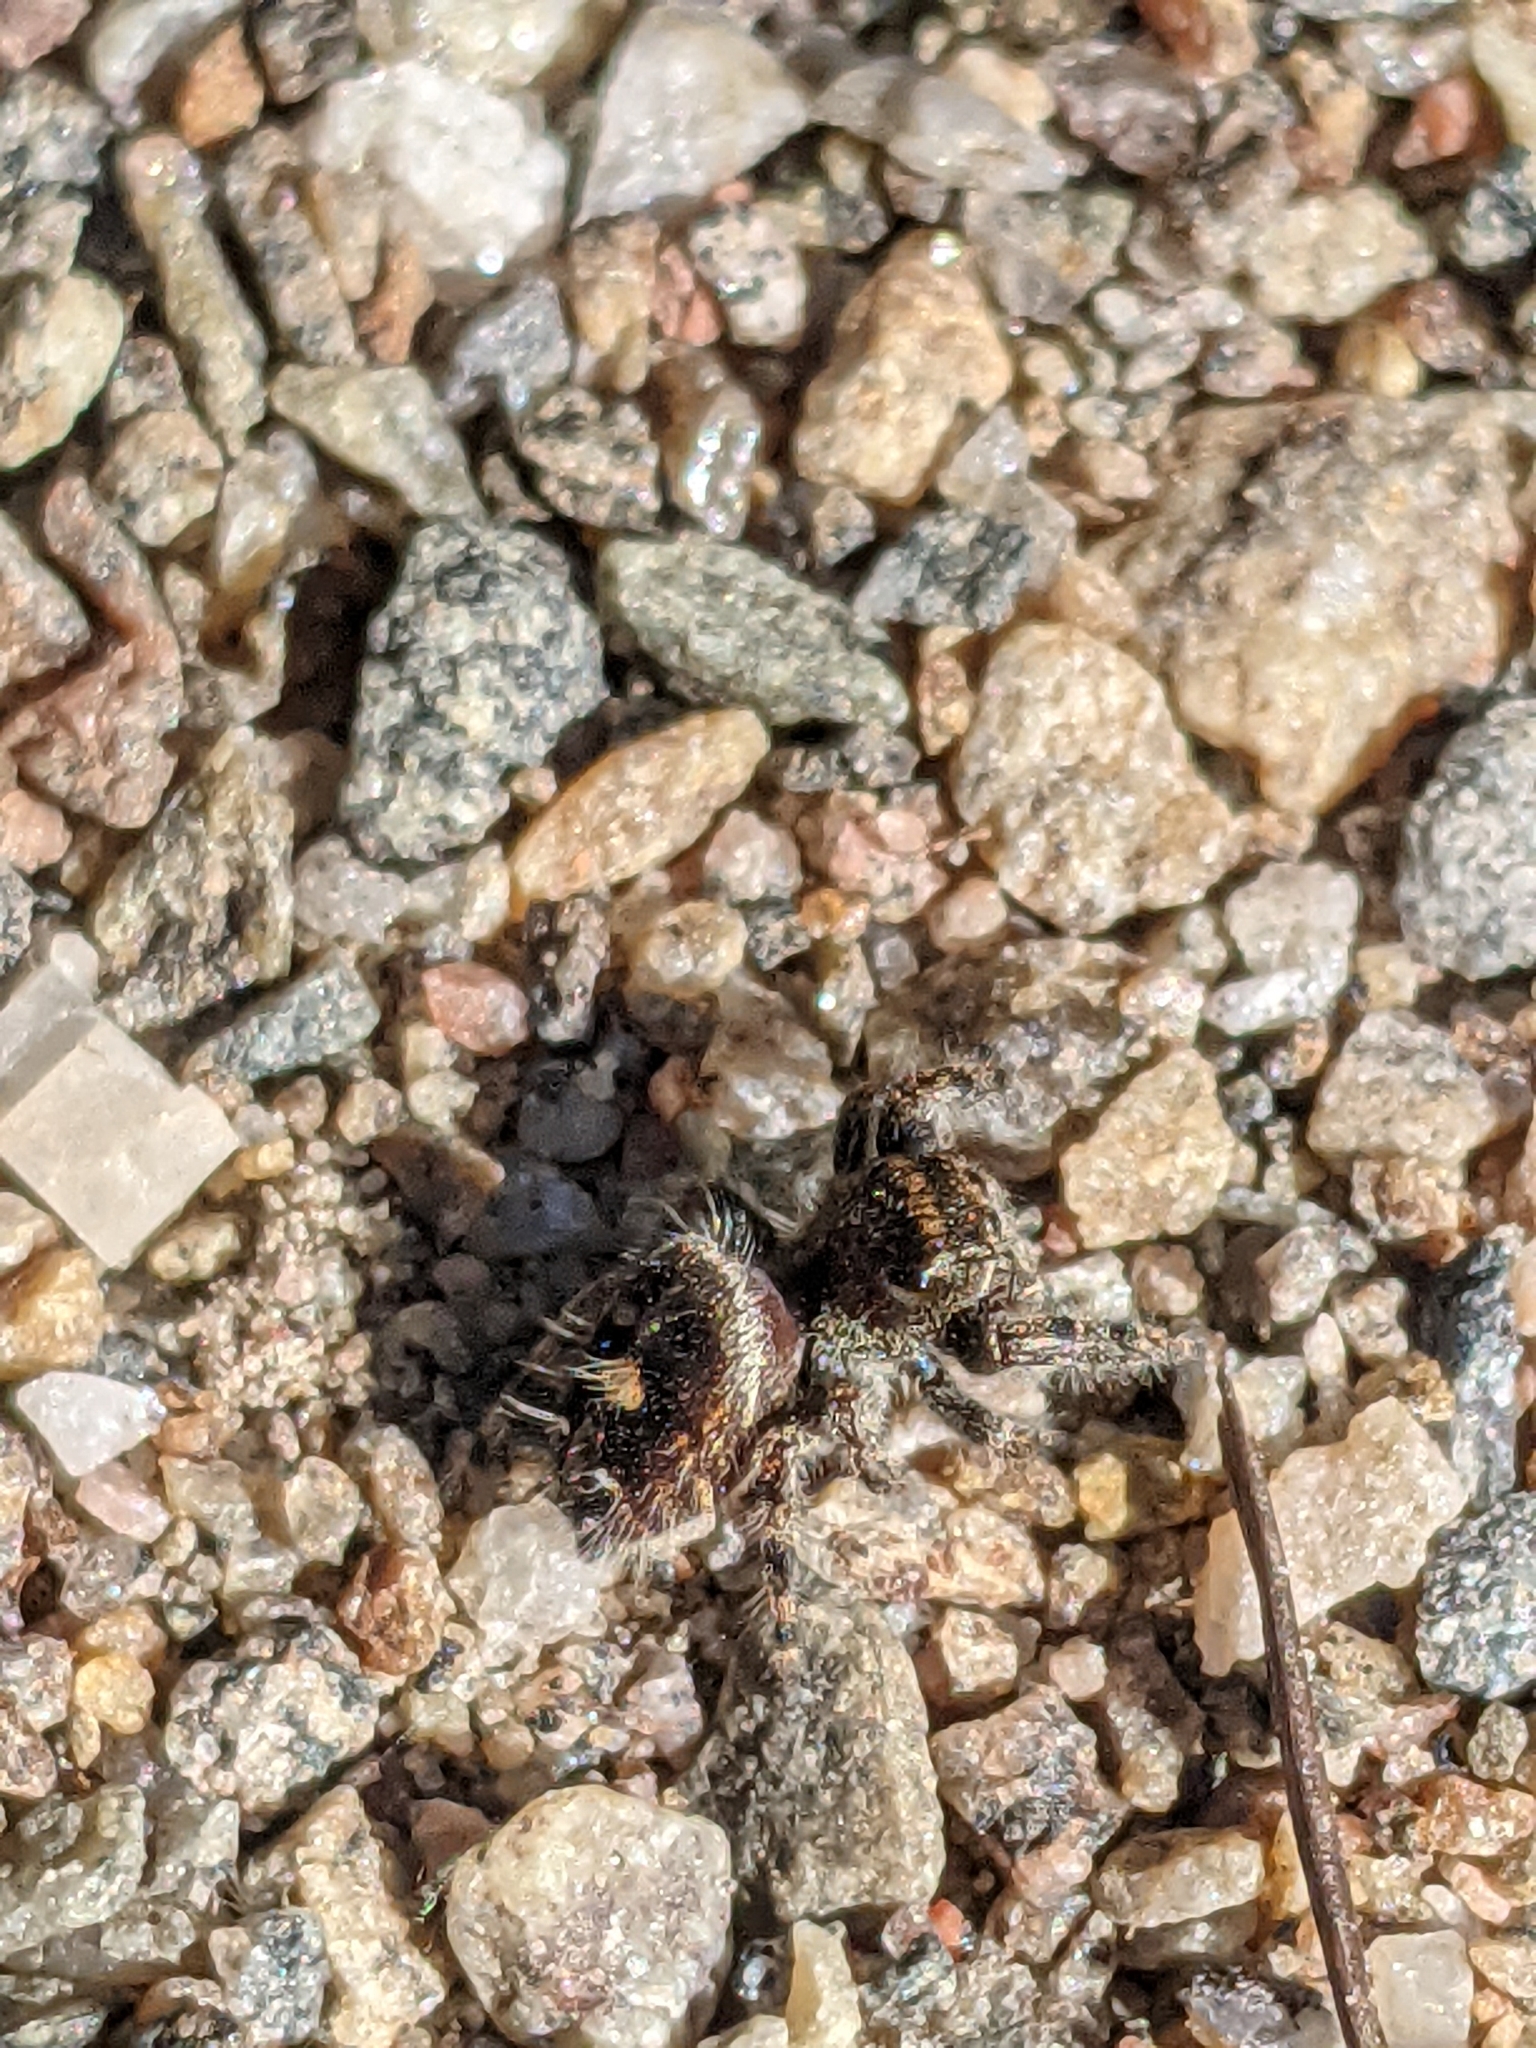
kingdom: Animalia
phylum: Arthropoda
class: Arachnida
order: Araneae
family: Salticidae
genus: Phidippus
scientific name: Phidippus audax
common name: Bold jumper
